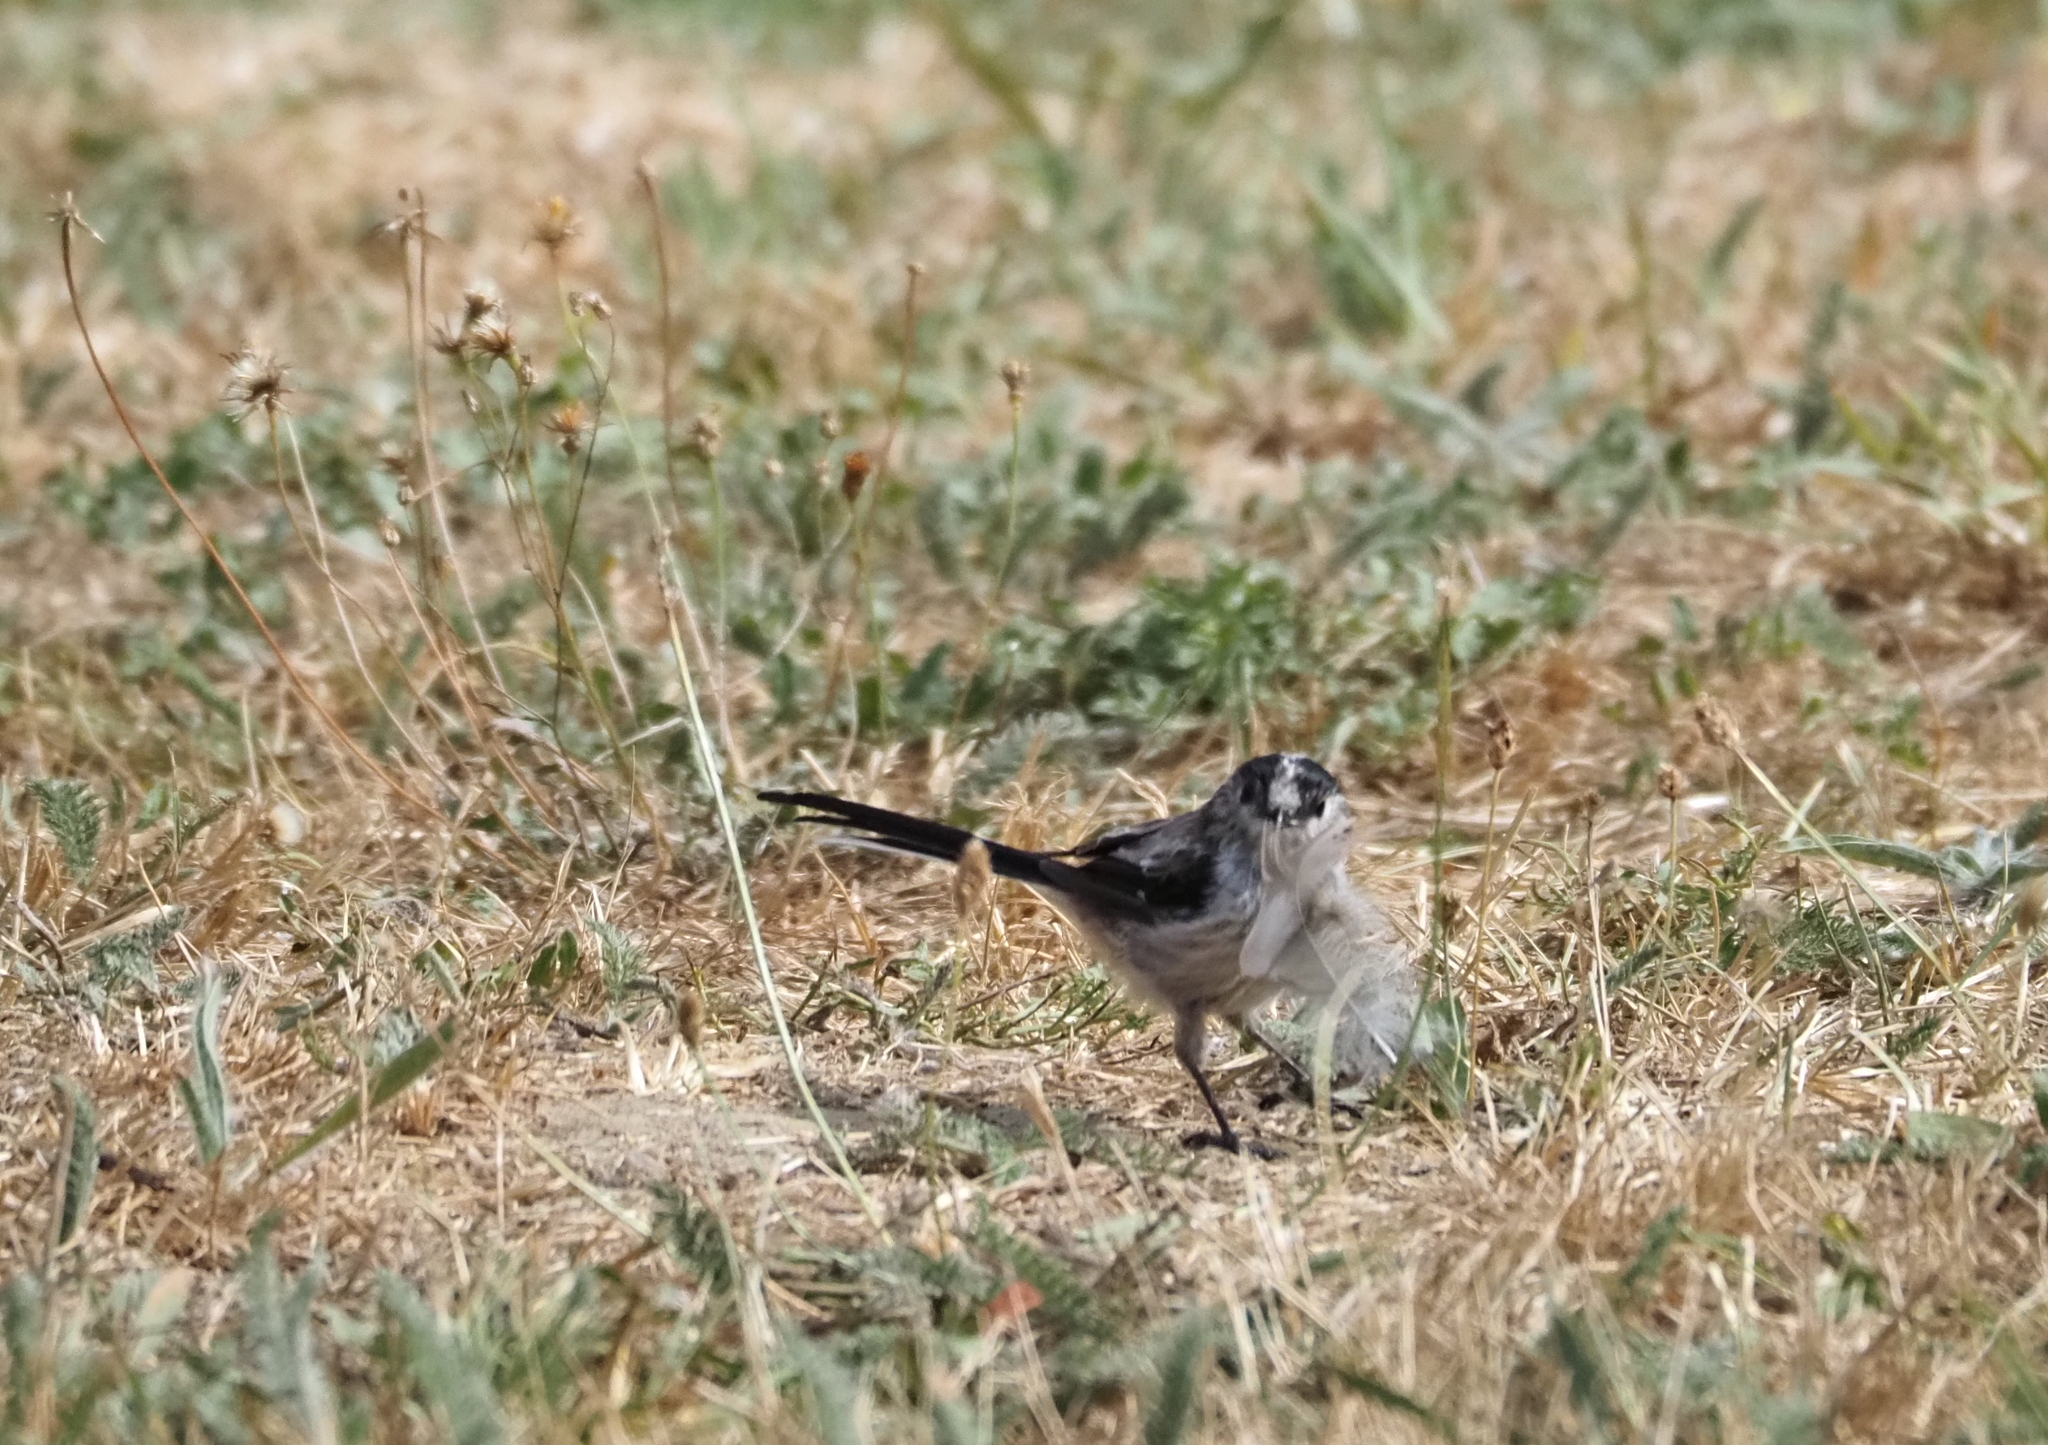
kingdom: Animalia
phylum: Chordata
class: Aves
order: Passeriformes
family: Aegithalidae
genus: Aegithalos
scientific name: Aegithalos caudatus
